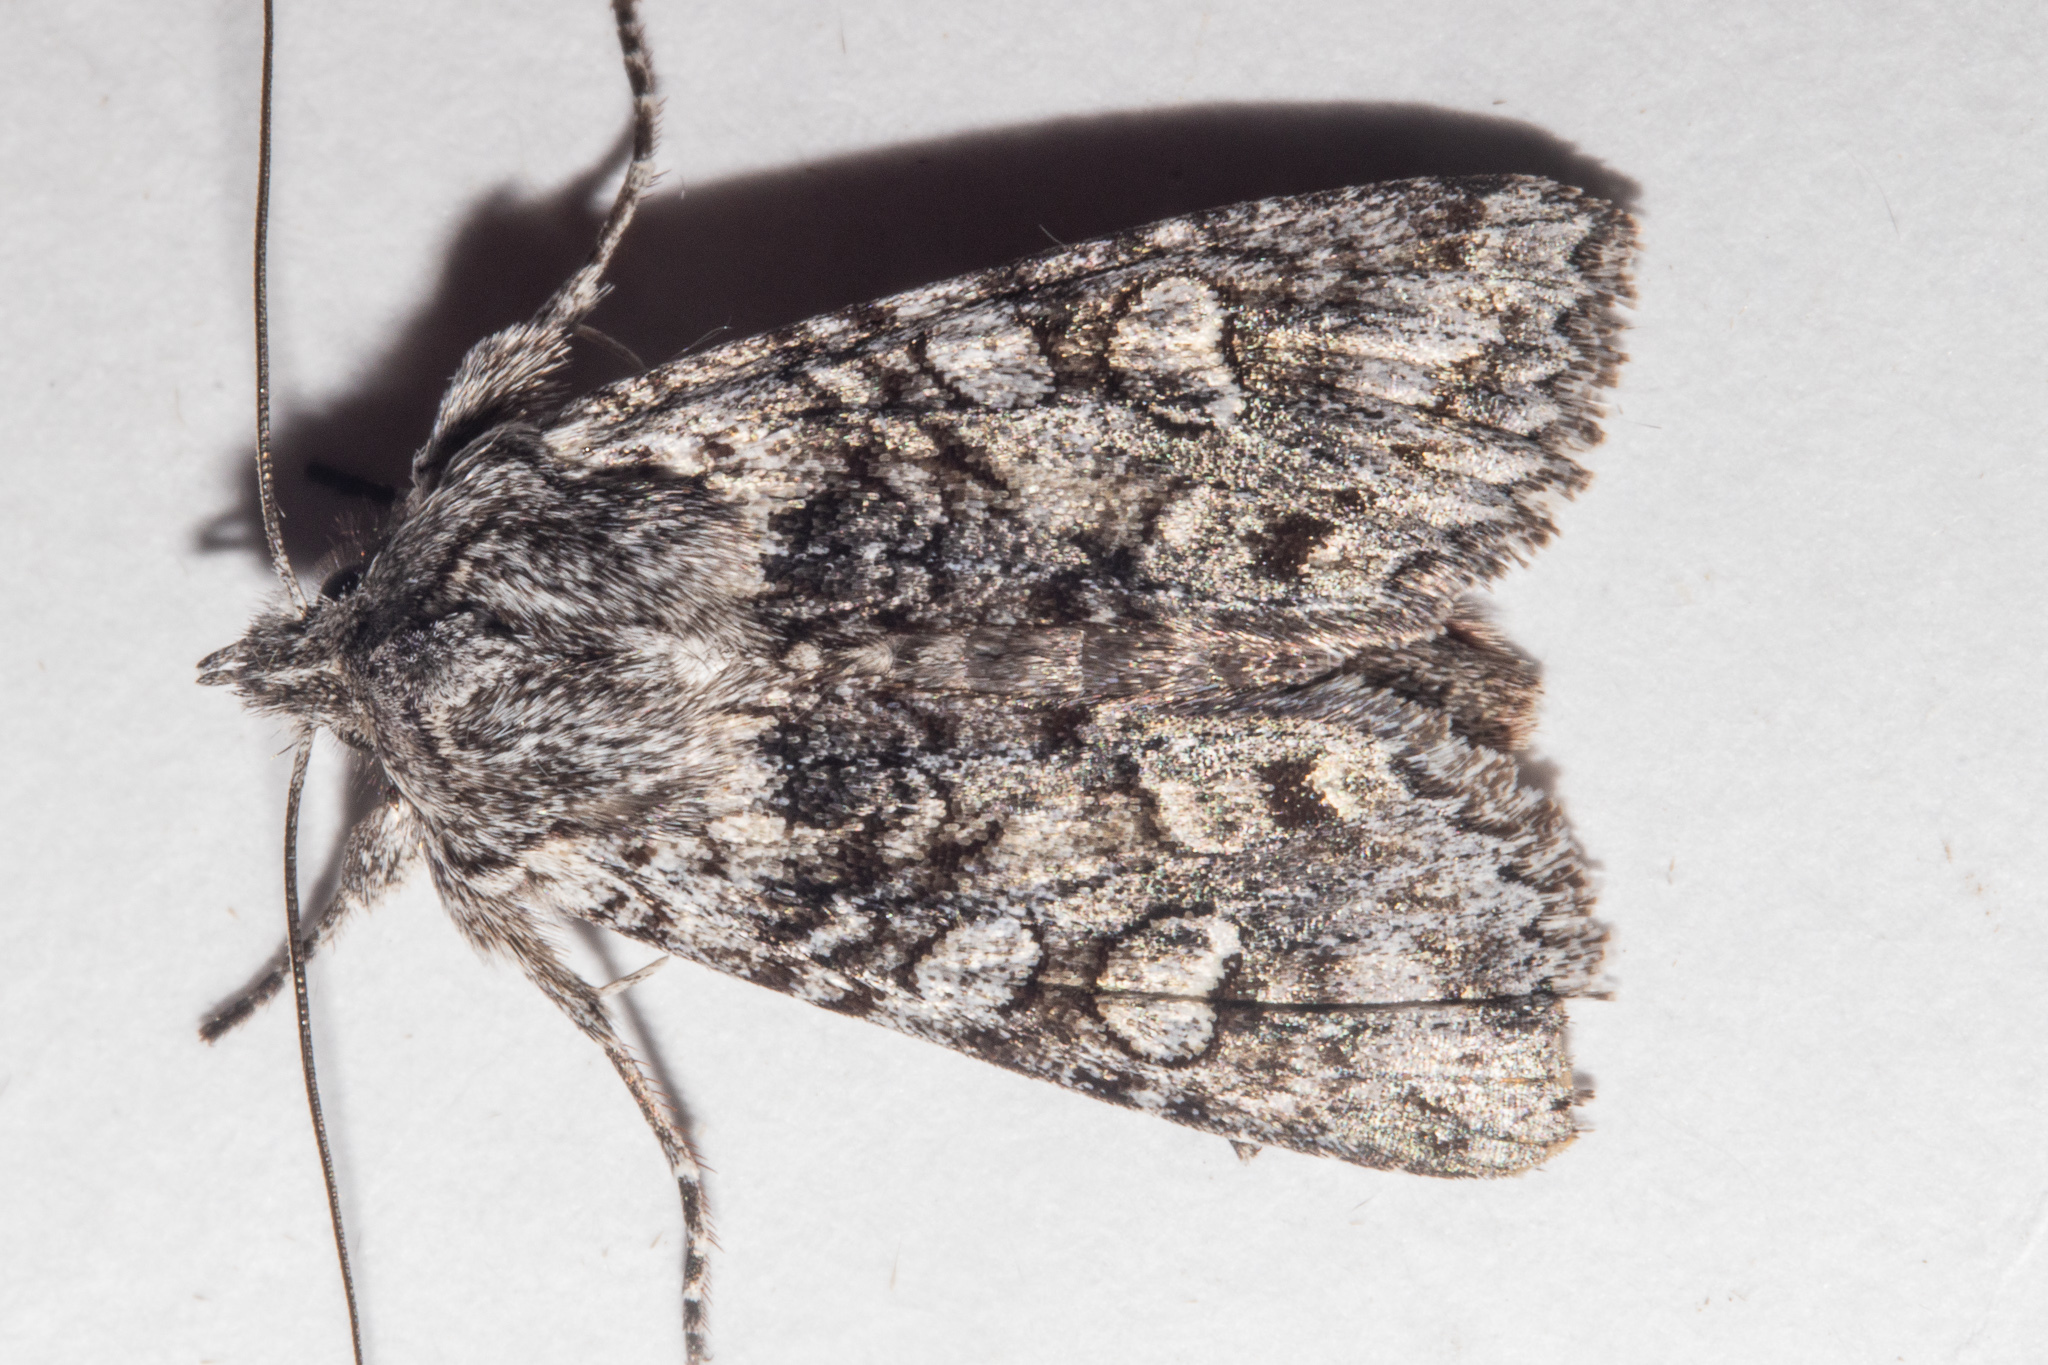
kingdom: Animalia
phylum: Arthropoda
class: Insecta
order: Lepidoptera
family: Noctuidae
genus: Physetica
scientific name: Physetica longstaffii
